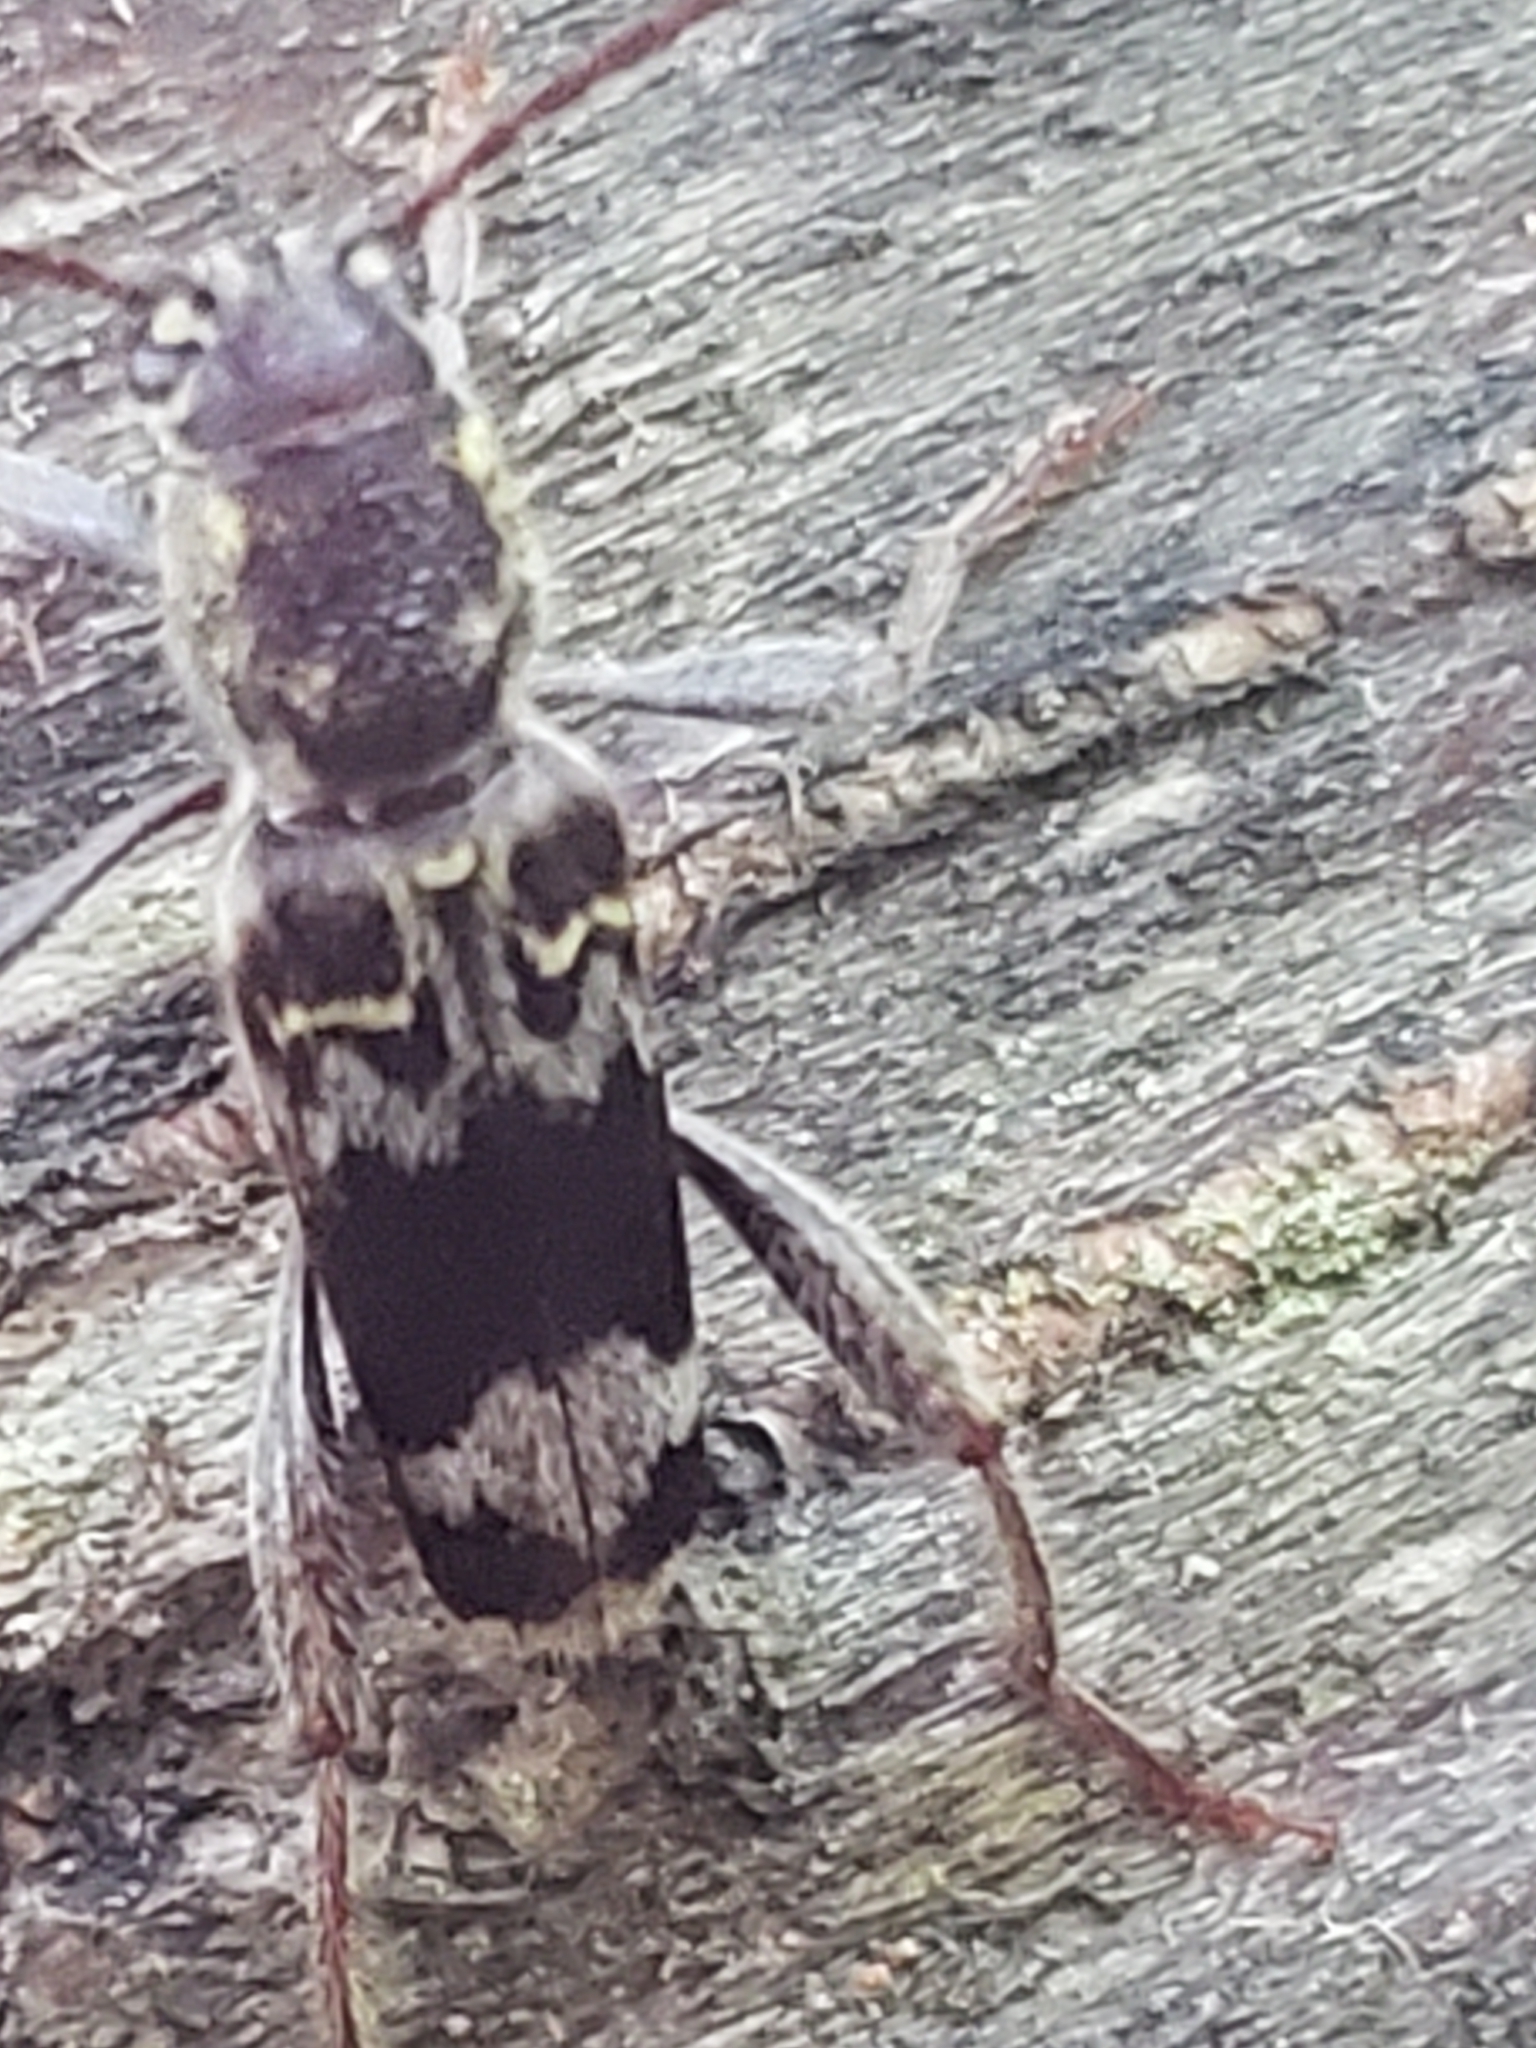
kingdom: Animalia
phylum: Arthropoda
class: Insecta
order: Coleoptera
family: Cerambycidae
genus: Xylotrechus
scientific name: Xylotrechus colonus
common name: Long-horned beetle
